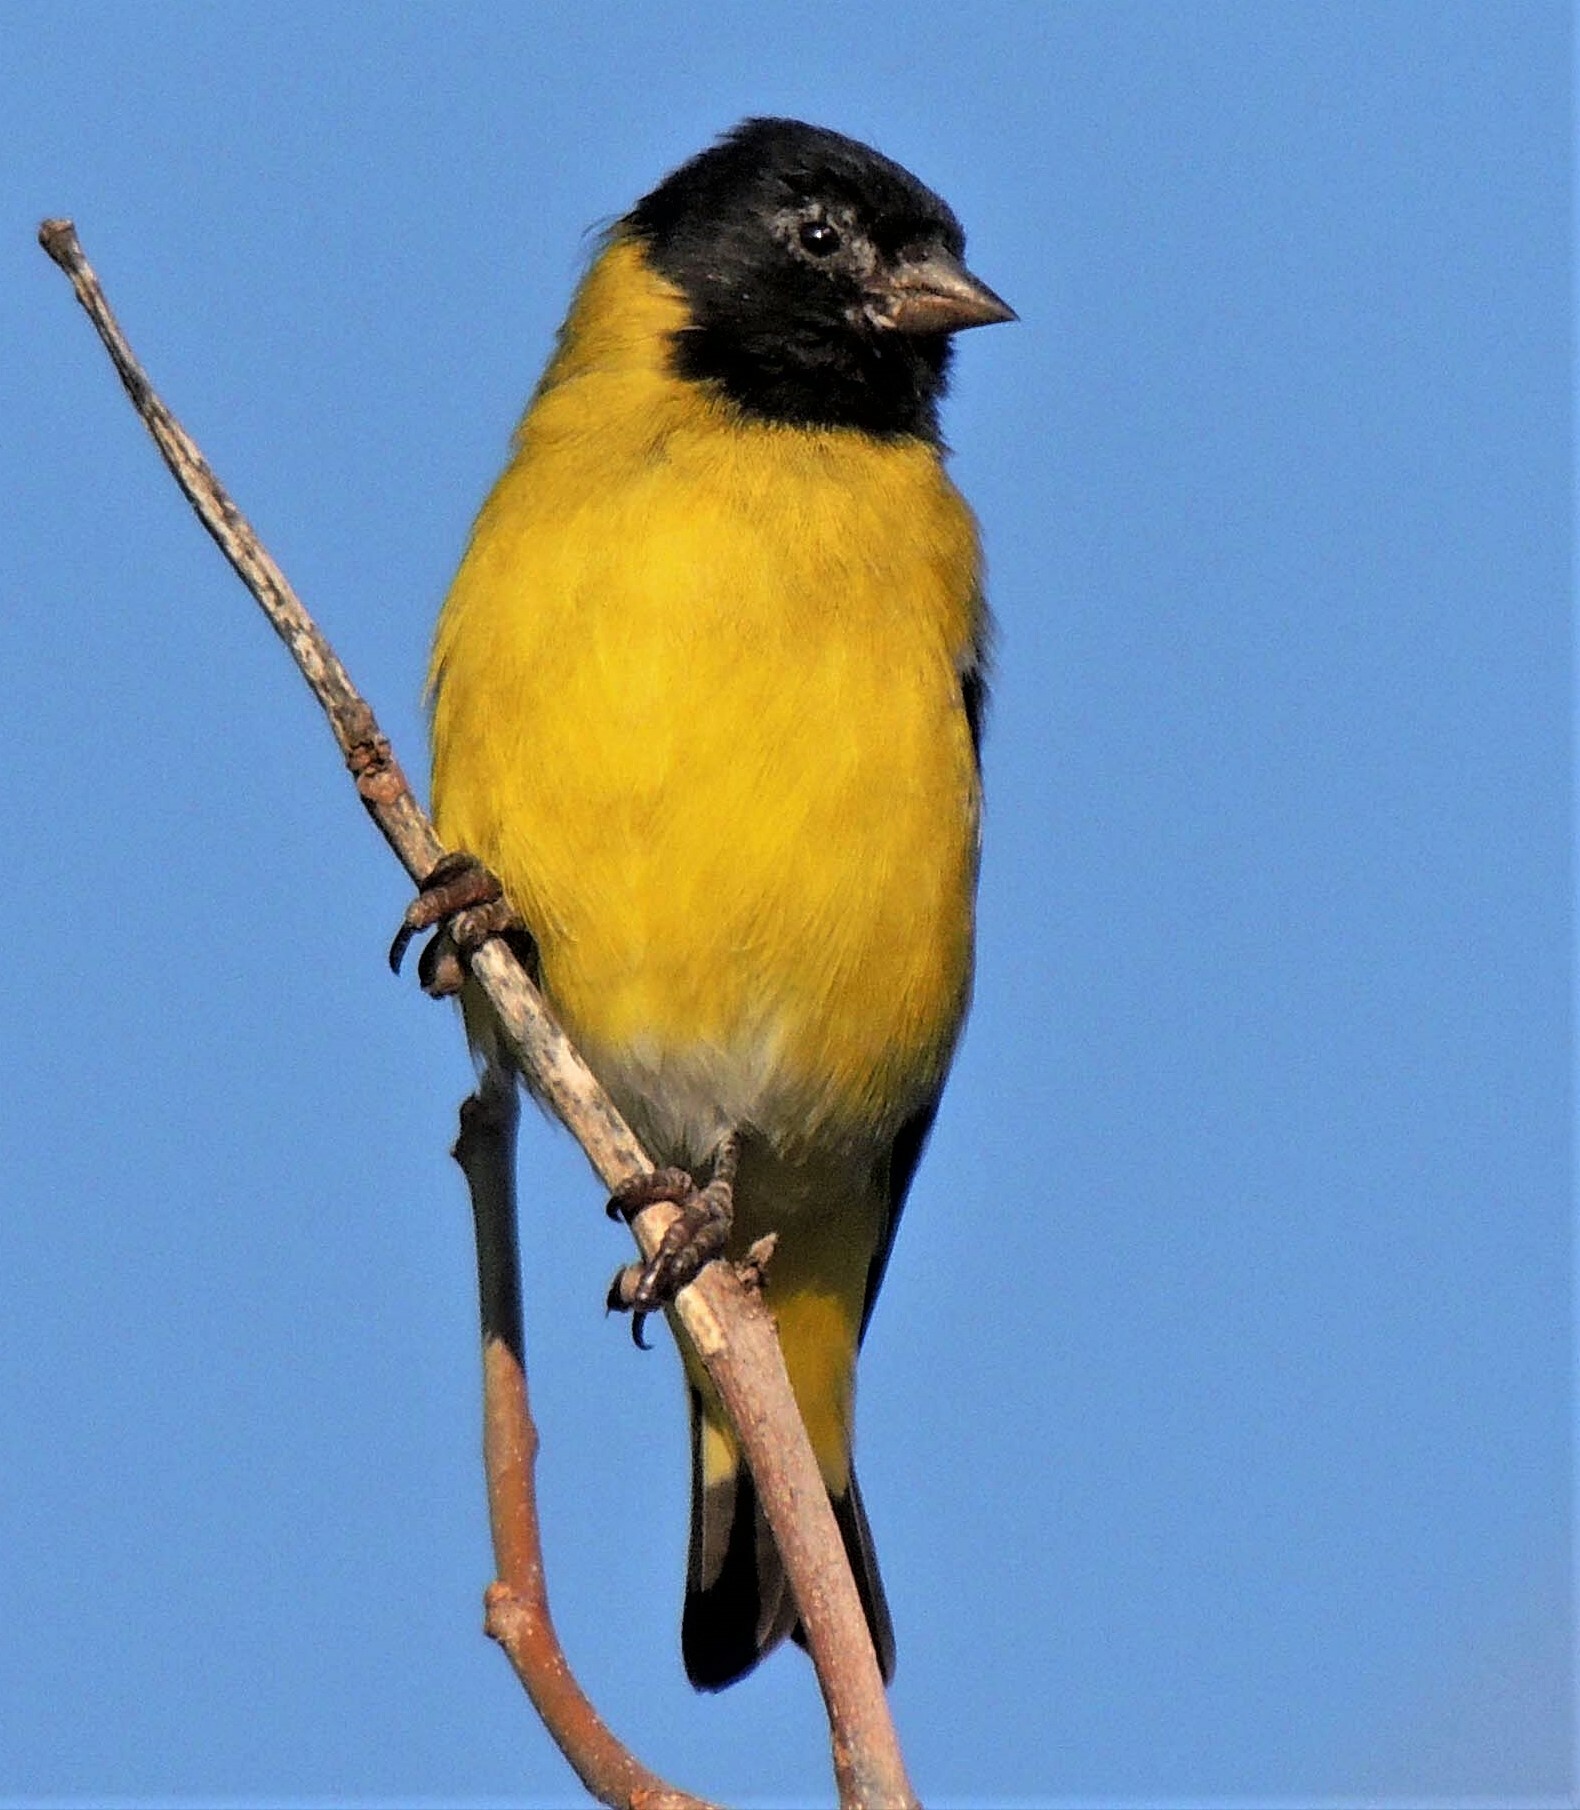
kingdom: Animalia
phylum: Chordata
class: Aves
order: Passeriformes
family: Fringillidae
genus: Spinus
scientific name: Spinus magellanicus
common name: Hooded siskin
